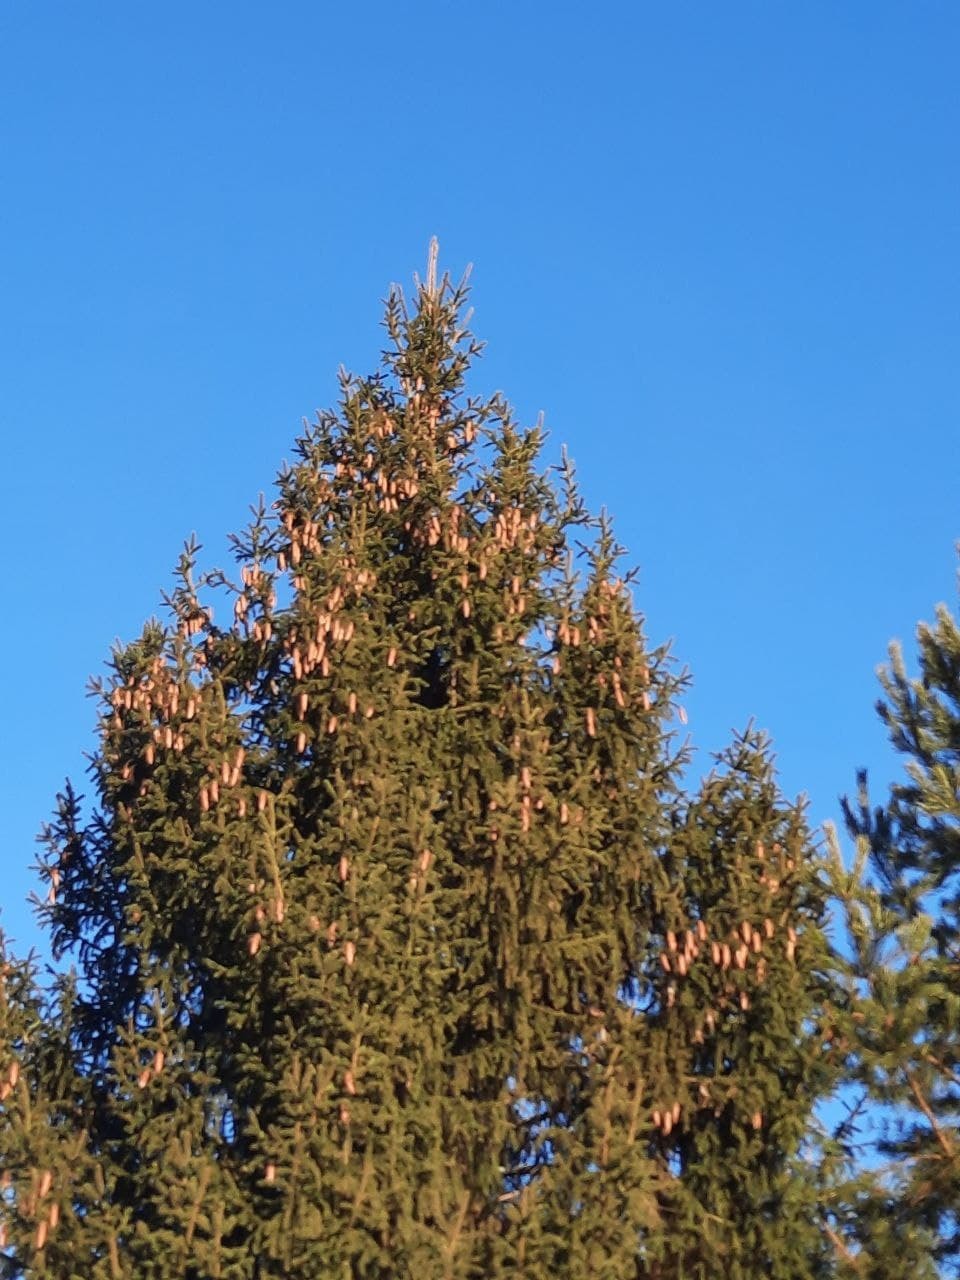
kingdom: Plantae
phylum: Tracheophyta
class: Pinopsida
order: Pinales
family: Pinaceae
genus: Picea
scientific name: Picea
